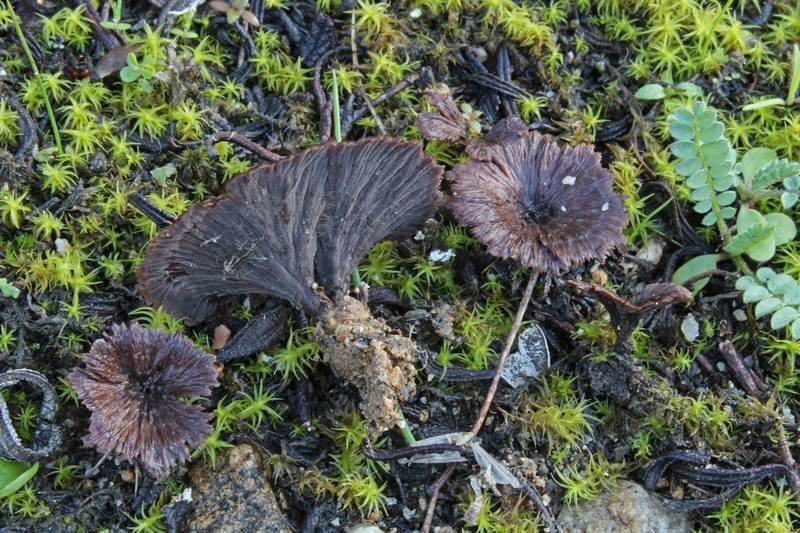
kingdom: Fungi
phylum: Basidiomycota
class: Agaricomycetes
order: Thelephorales
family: Thelephoraceae
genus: Thelephora
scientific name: Thelephora caryophyllea
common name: Carnation earthfan
